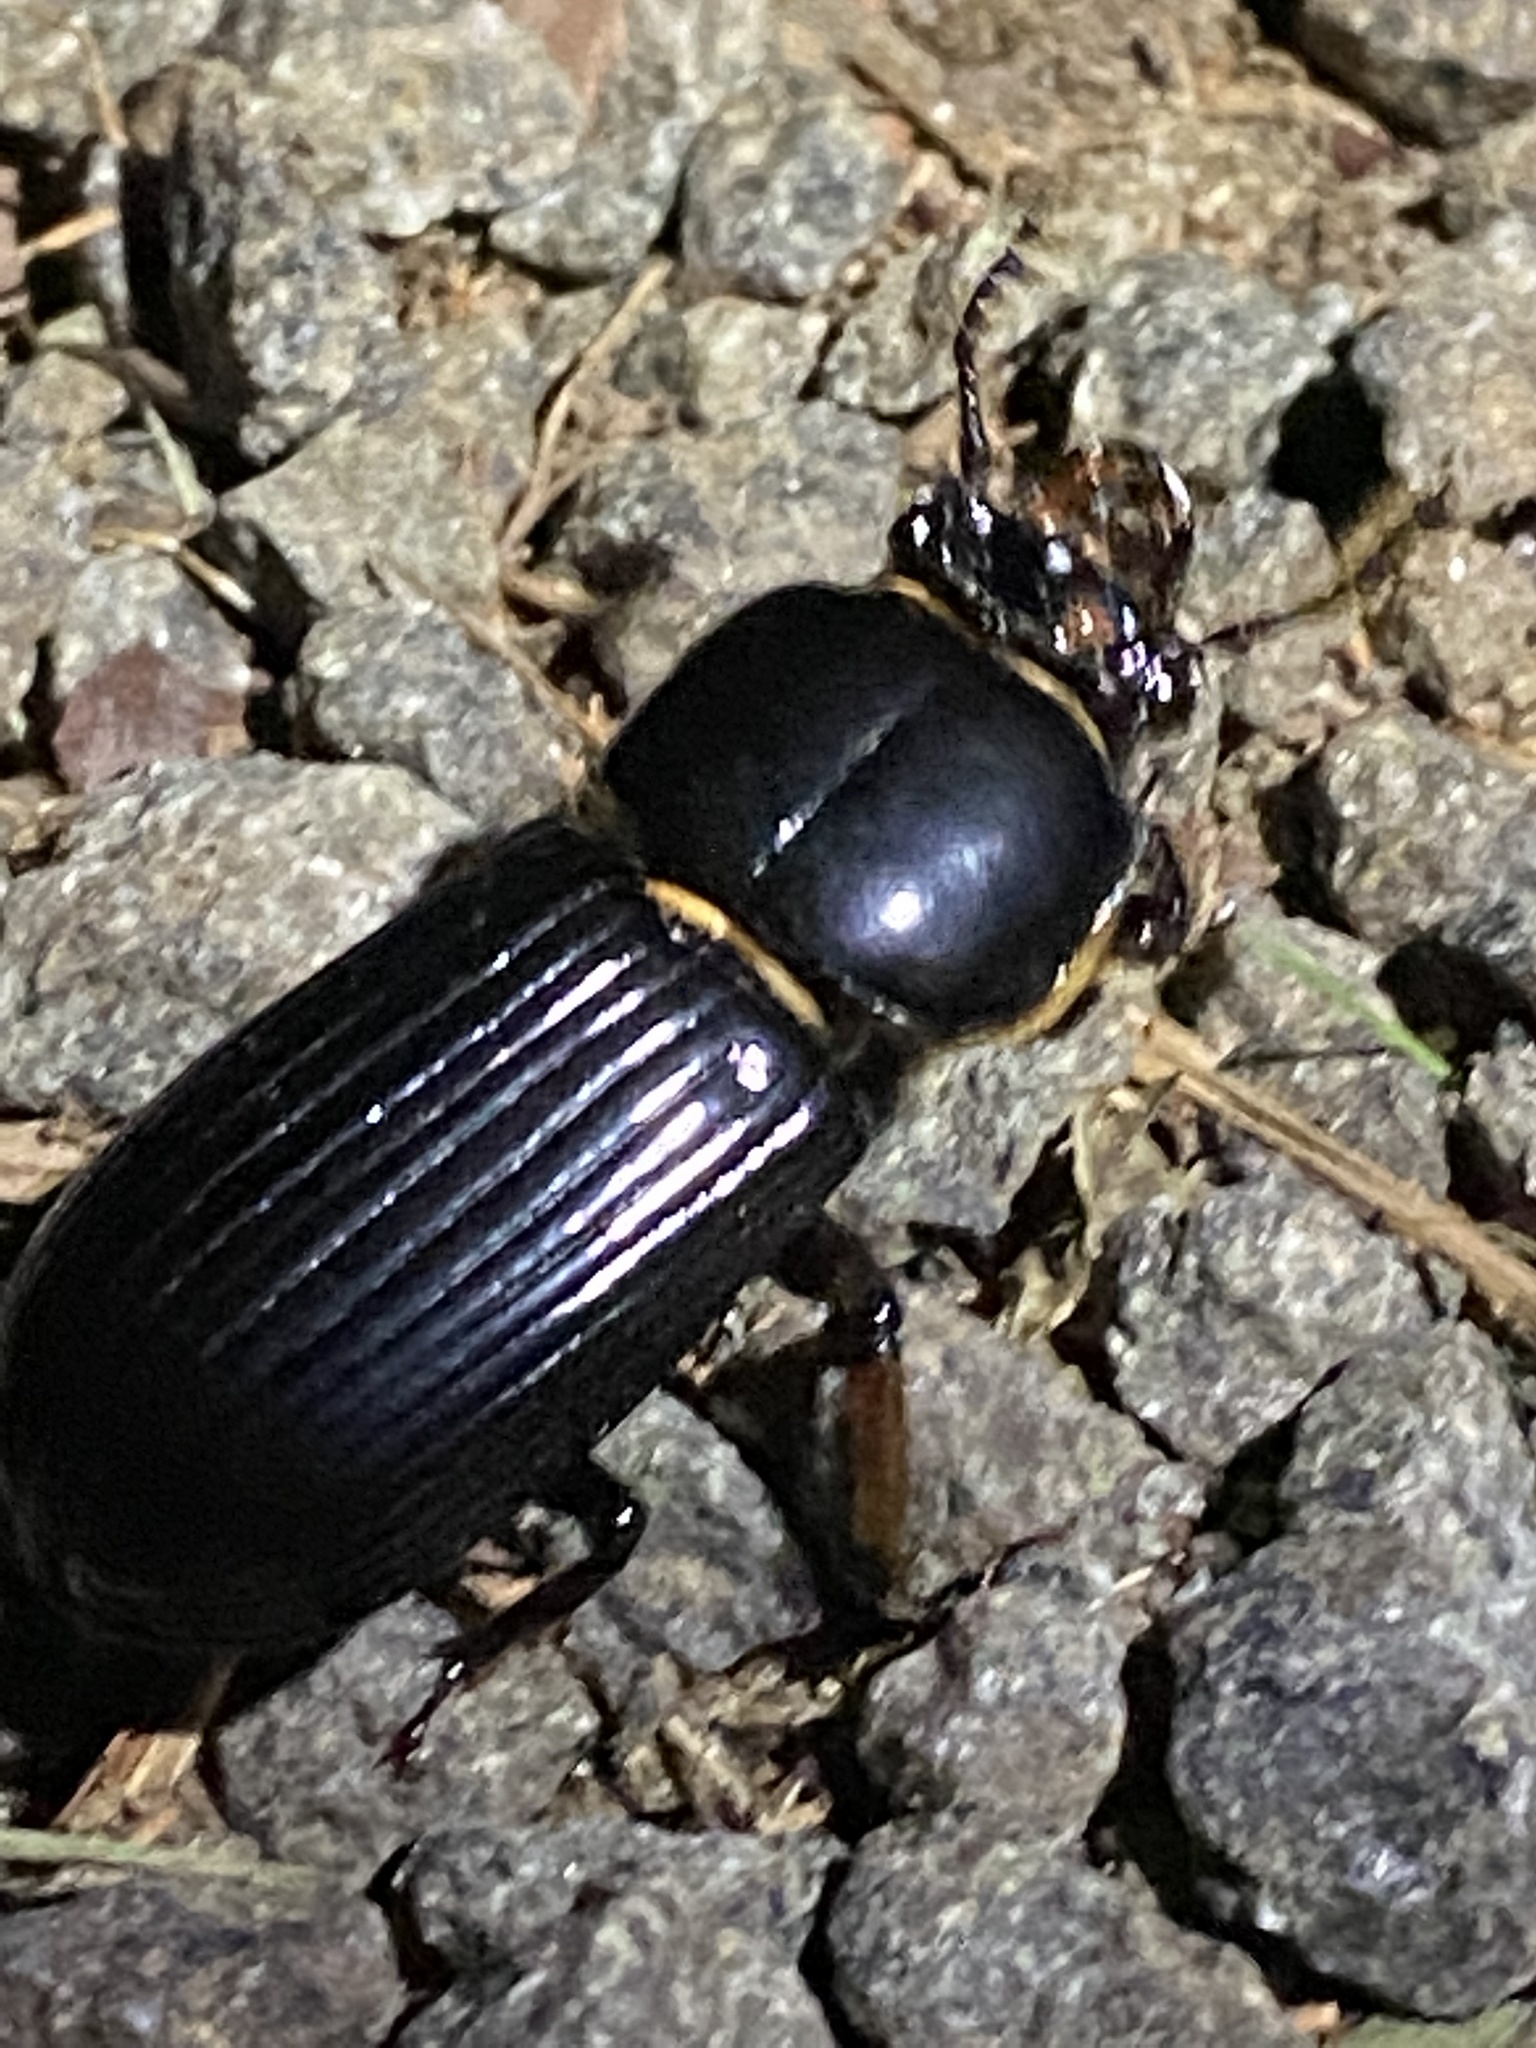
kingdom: Animalia
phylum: Arthropoda
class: Insecta
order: Coleoptera
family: Passalidae
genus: Odontotaenius
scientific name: Odontotaenius disjunctus
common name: Patent leather beetle
